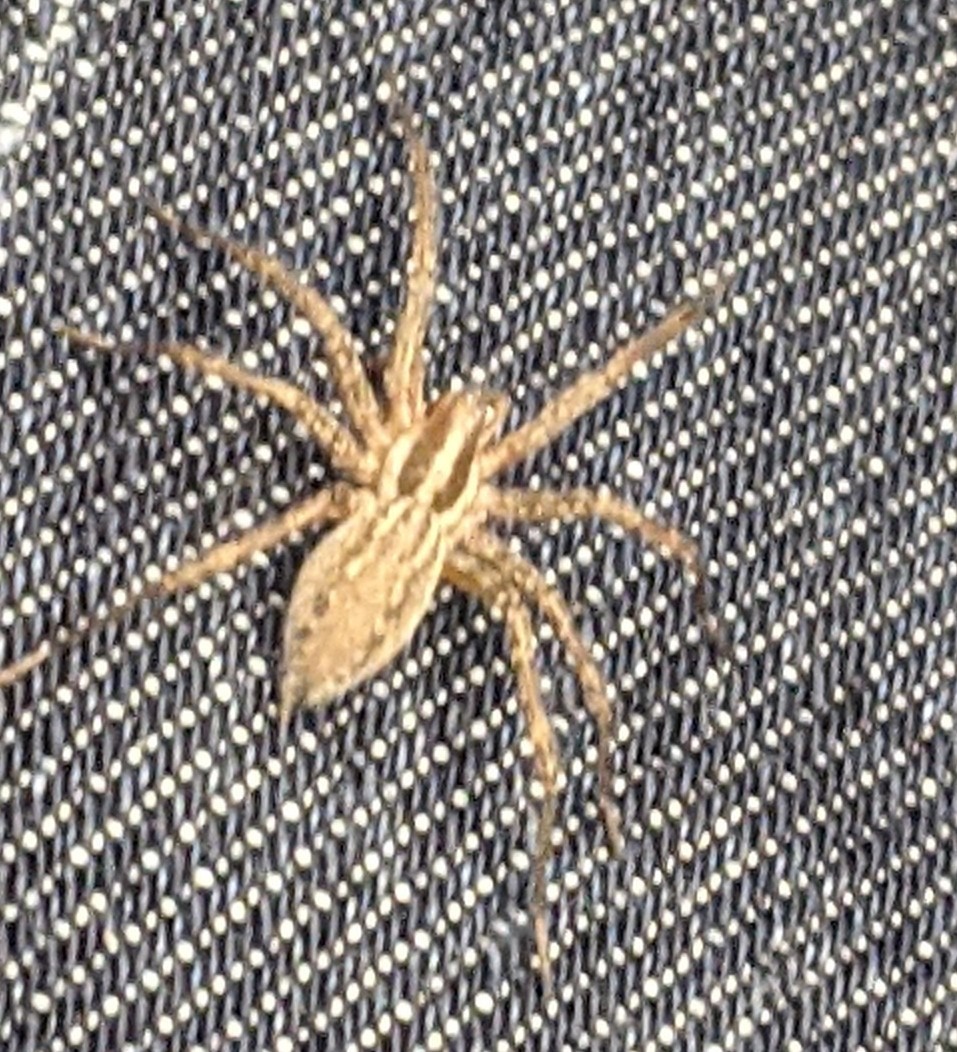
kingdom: Animalia
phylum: Arthropoda
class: Arachnida
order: Araneae
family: Agelenidae
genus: Agelenopsis
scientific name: Agelenopsis
